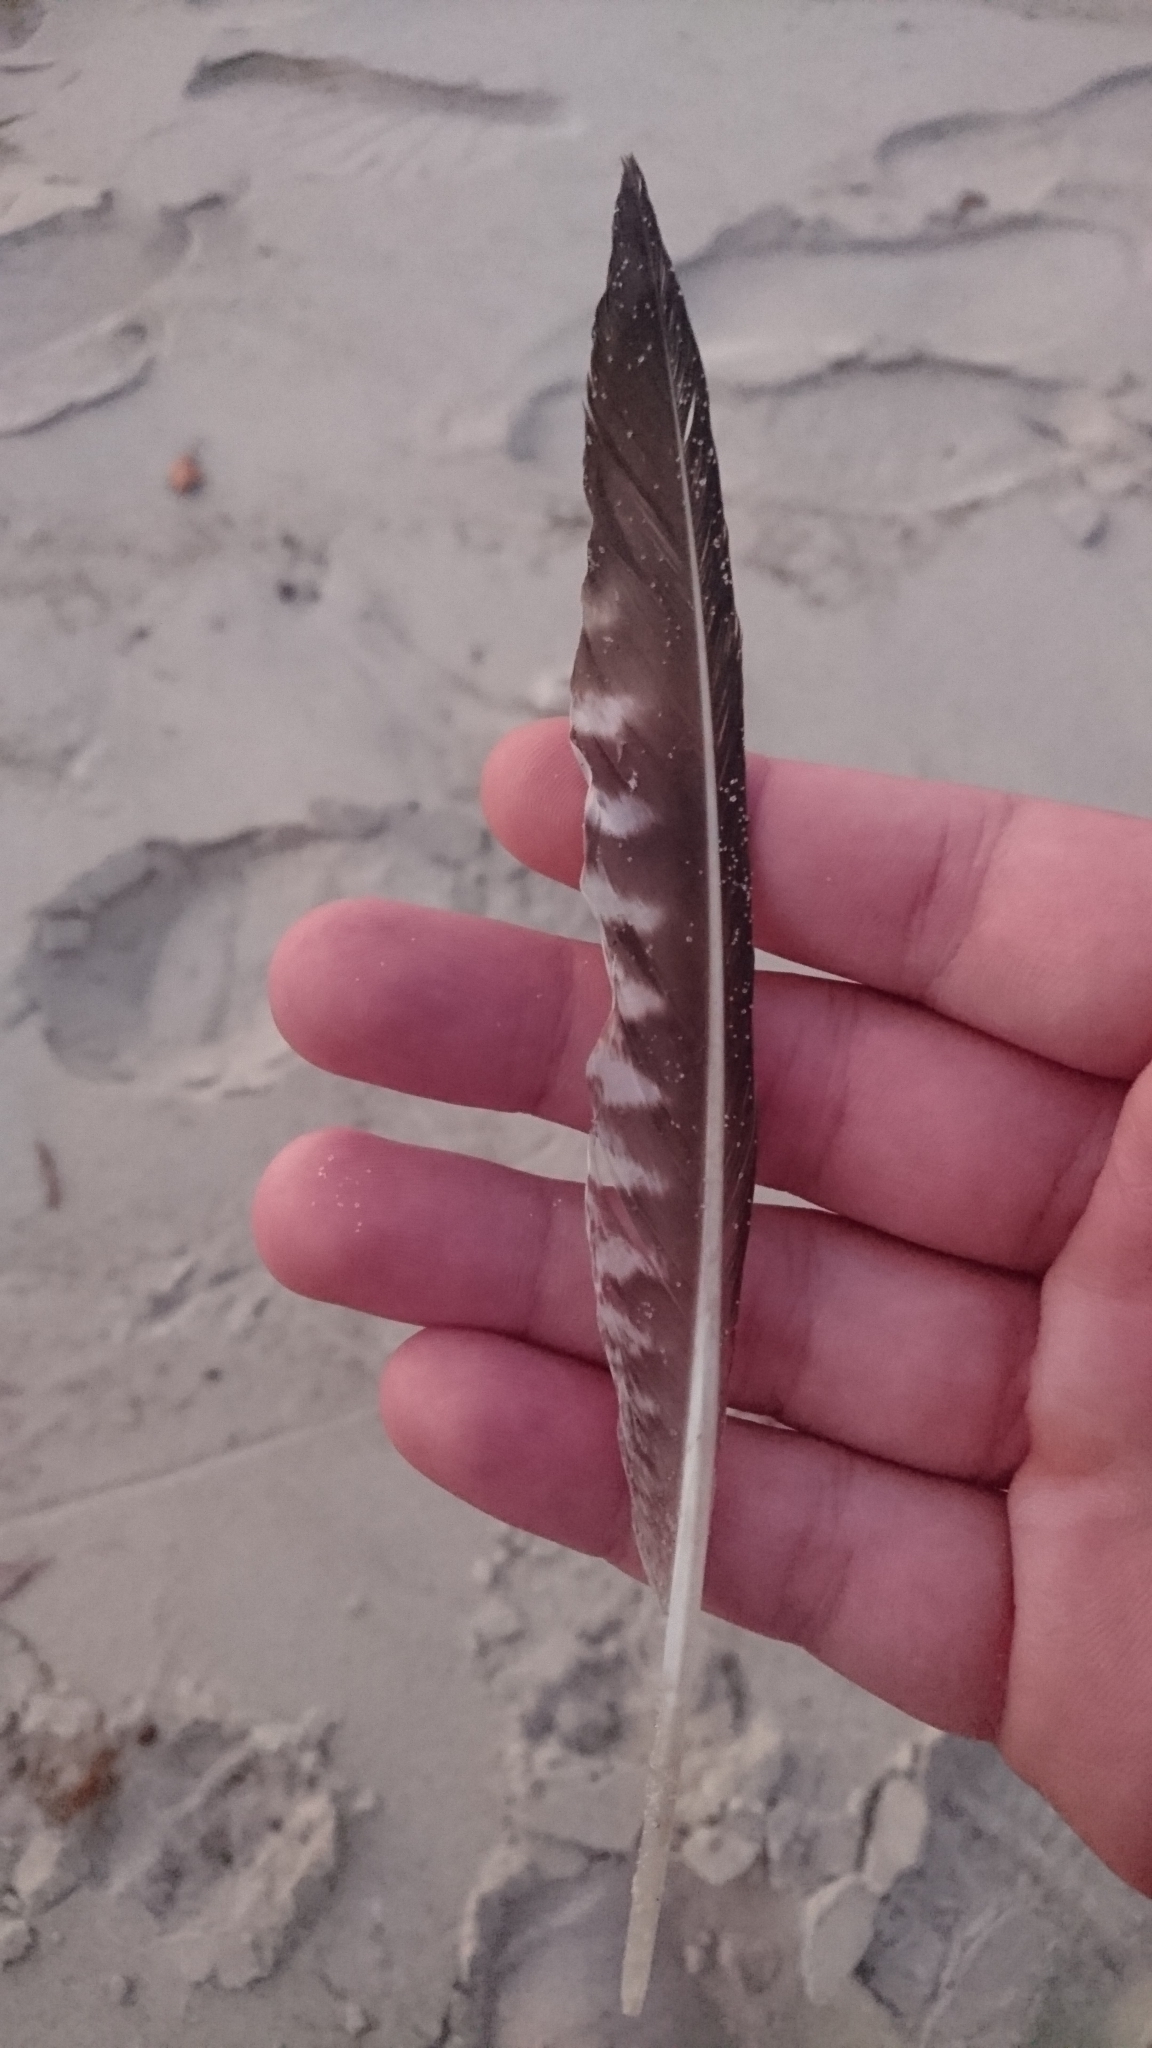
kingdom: Animalia
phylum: Chordata
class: Aves
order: Charadriiformes
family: Scolopacidae
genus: Numenius
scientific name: Numenius phaeopus
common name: Whimbrel
